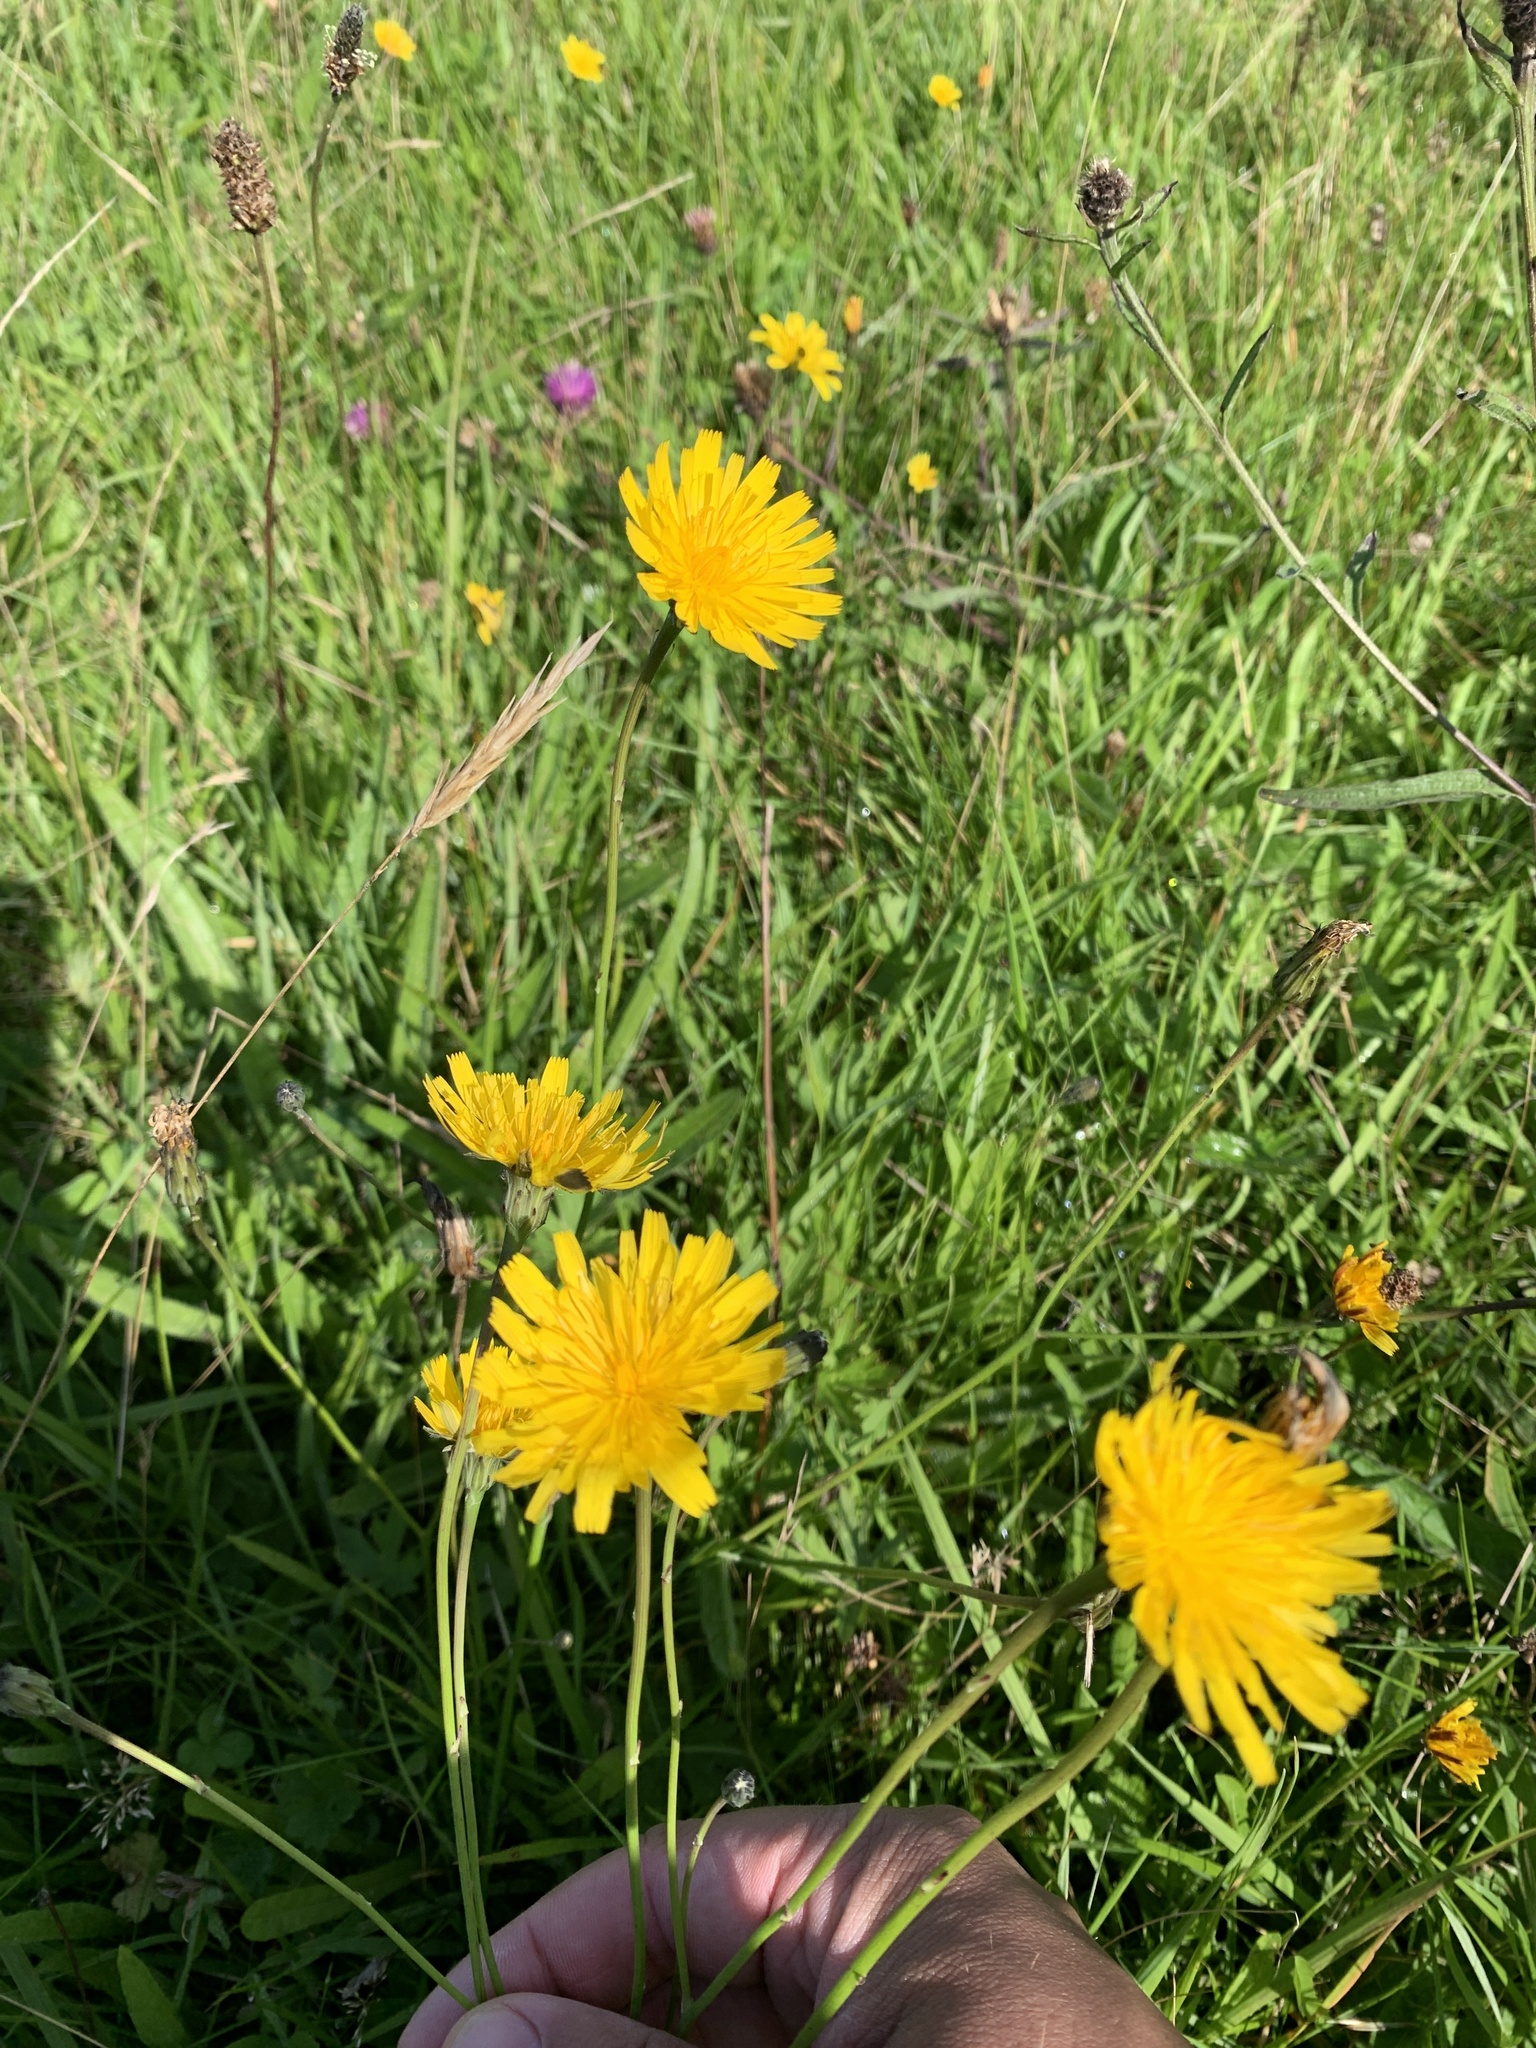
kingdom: Plantae
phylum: Tracheophyta
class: Magnoliopsida
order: Asterales
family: Asteraceae
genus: Hypochaeris
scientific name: Hypochaeris radicata
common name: Flatweed
